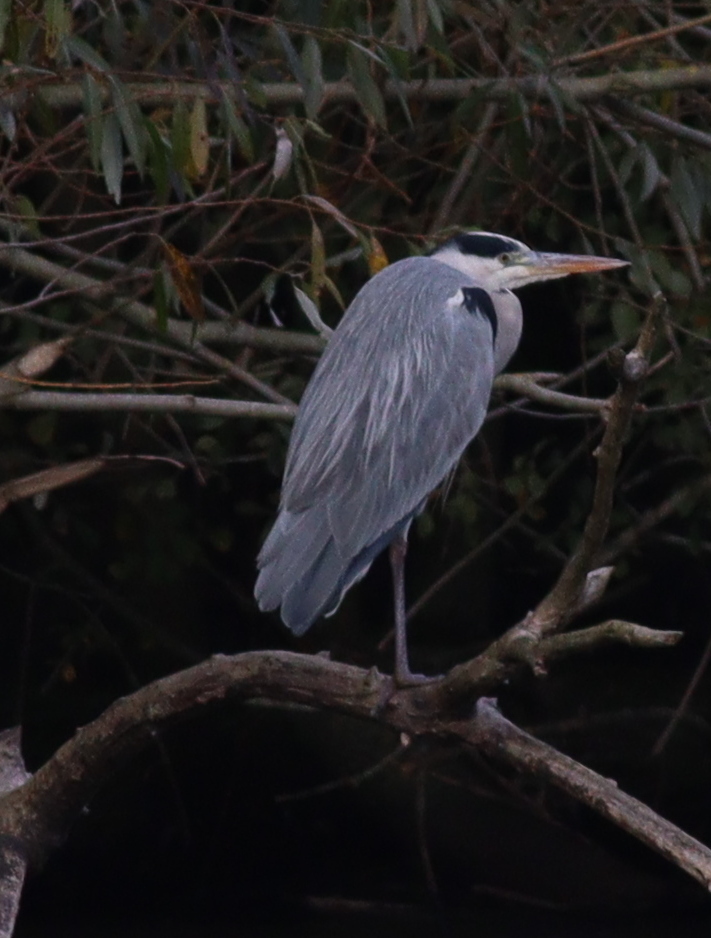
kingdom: Animalia
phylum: Chordata
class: Aves
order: Pelecaniformes
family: Ardeidae
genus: Ardea
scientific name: Ardea cinerea
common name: Grey heron
